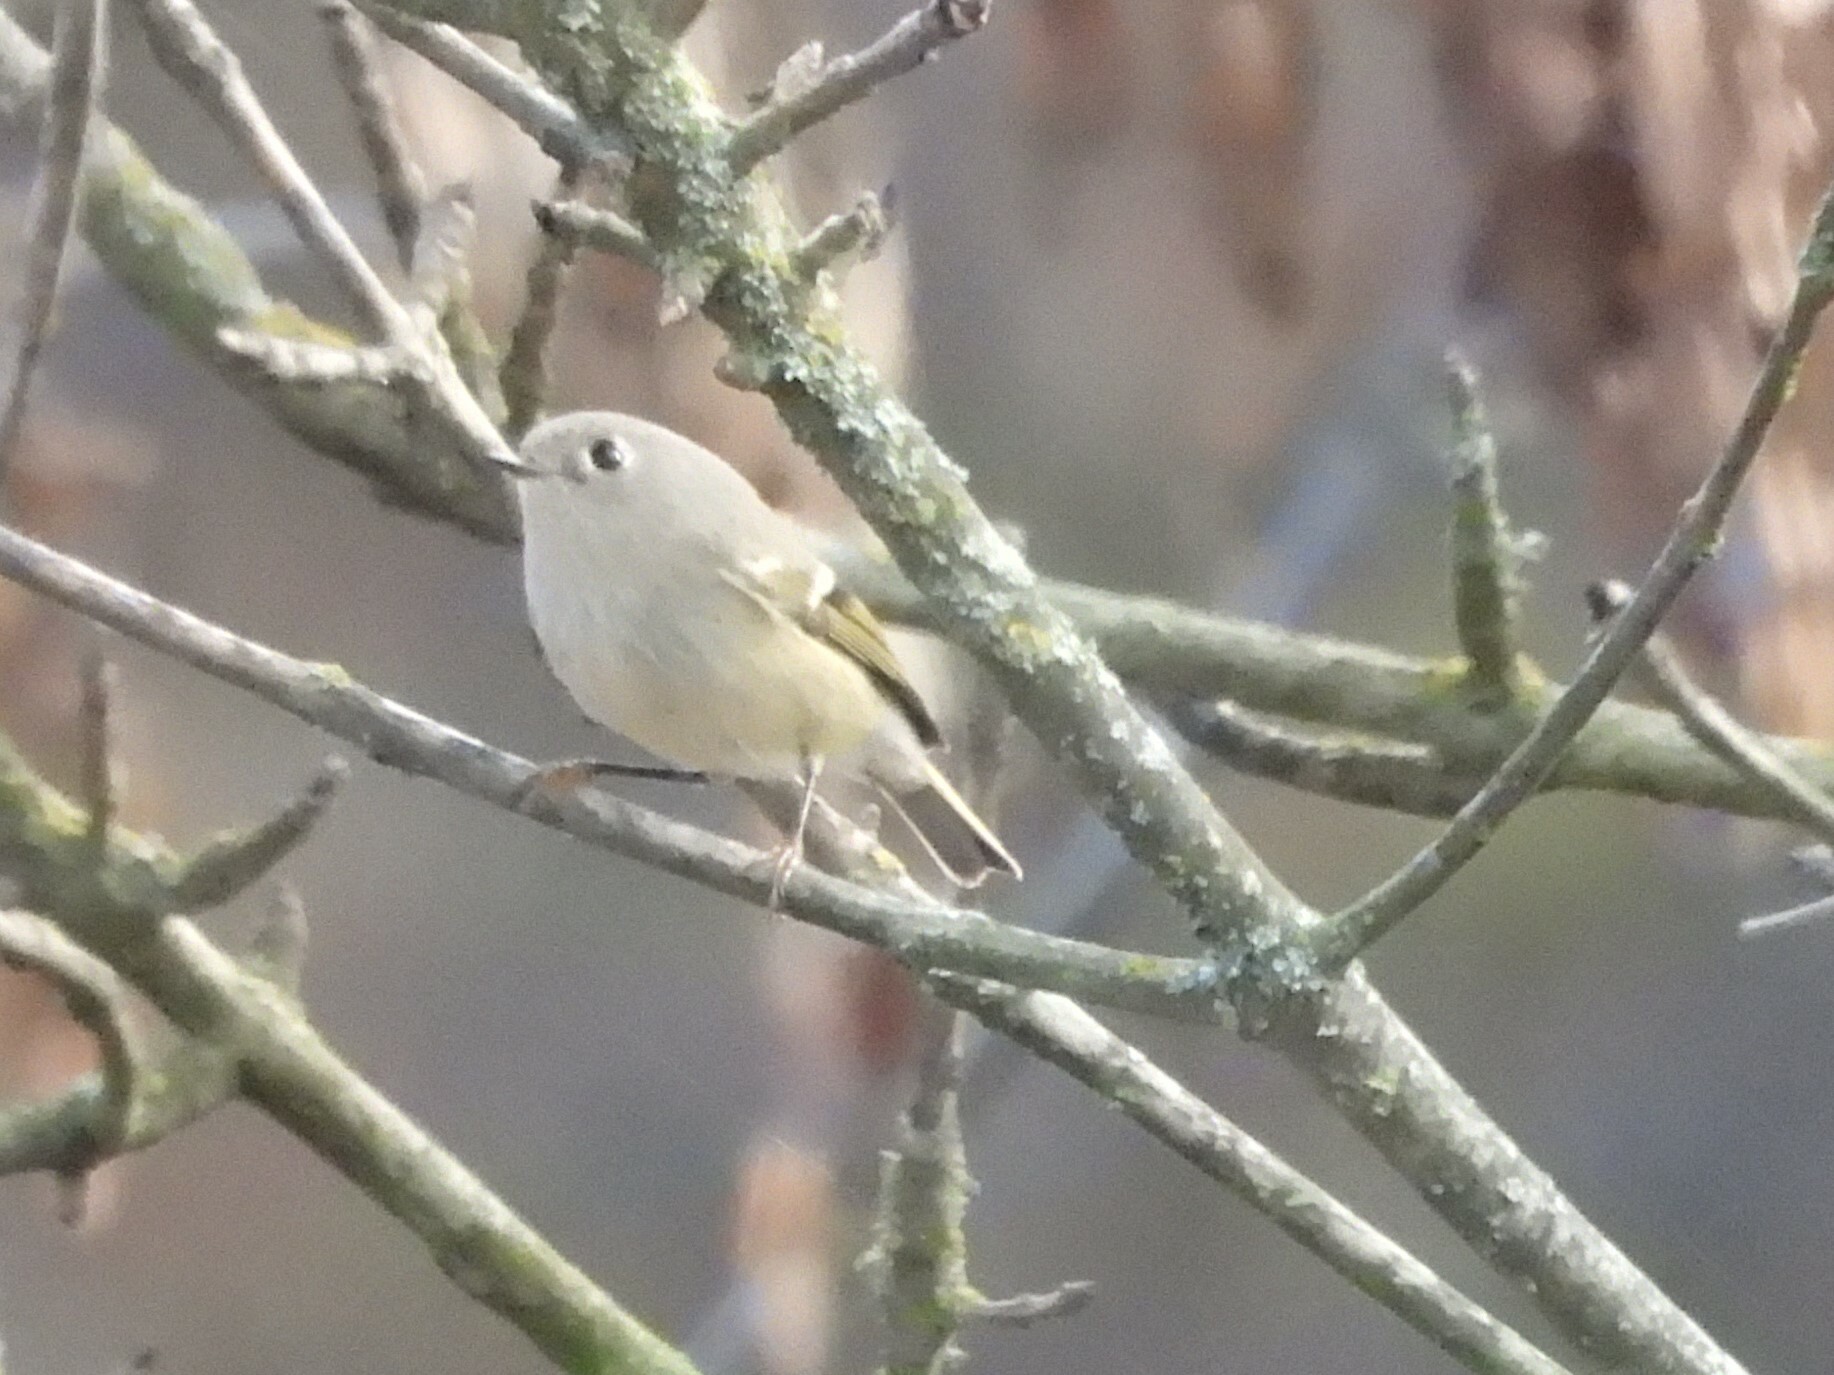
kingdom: Animalia
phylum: Chordata
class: Aves
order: Passeriformes
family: Regulidae
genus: Regulus
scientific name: Regulus calendula
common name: Ruby-crowned kinglet
